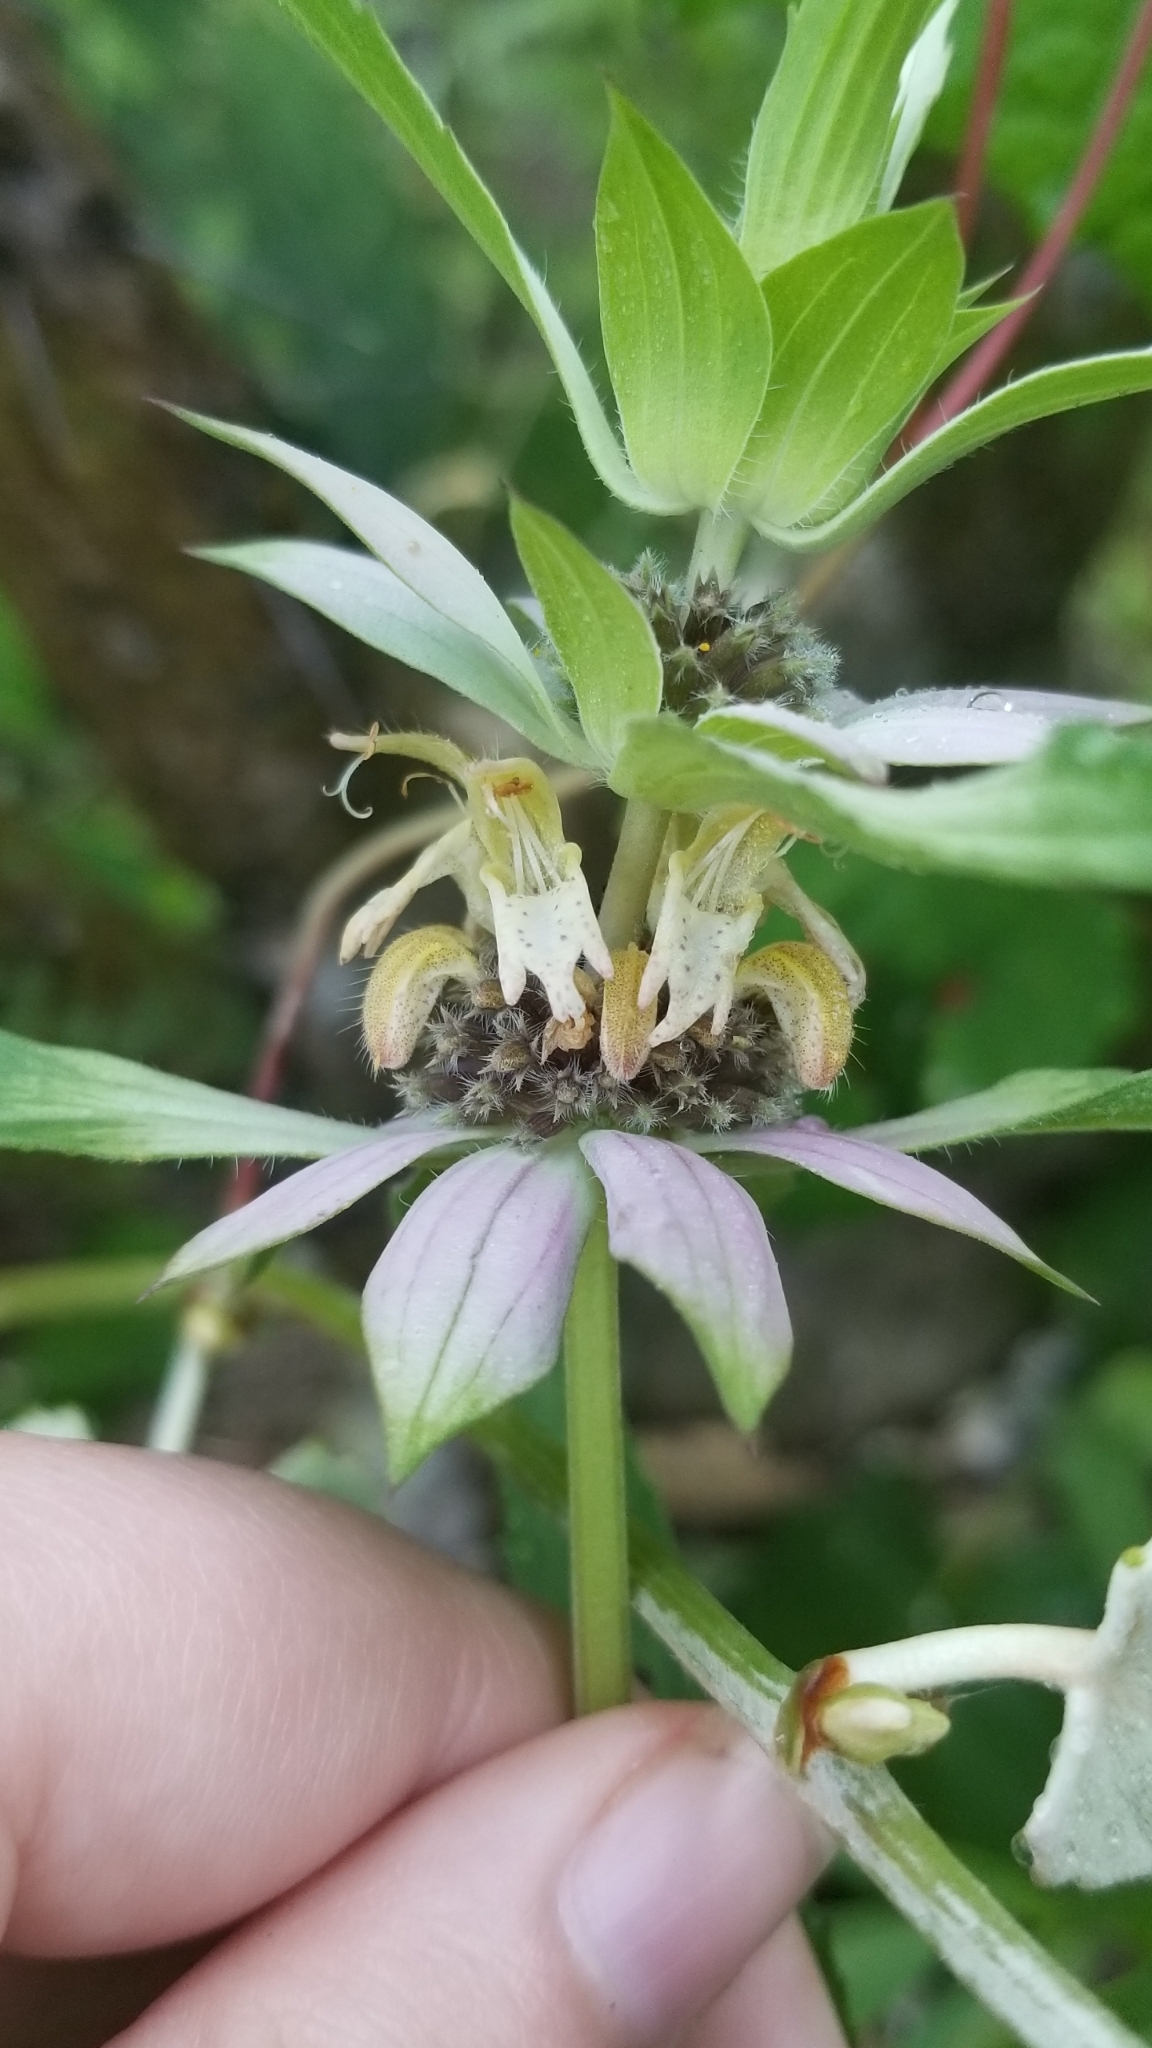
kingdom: Plantae
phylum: Tracheophyta
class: Magnoliopsida
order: Lamiales
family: Lamiaceae
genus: Monarda
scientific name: Monarda punctata
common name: Dotted monarda
